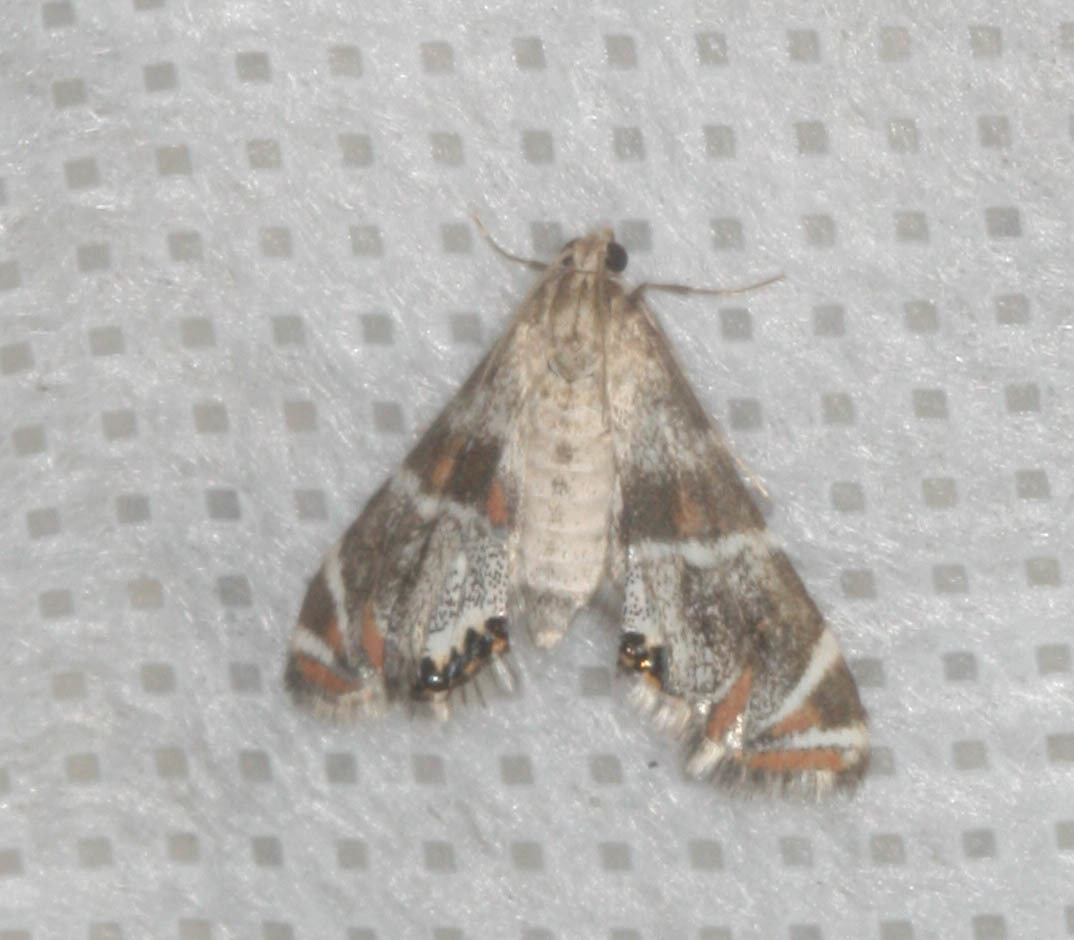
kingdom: Animalia
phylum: Arthropoda
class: Insecta
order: Lepidoptera
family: Crambidae
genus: Petrophila
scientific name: Petrophila confusalis
